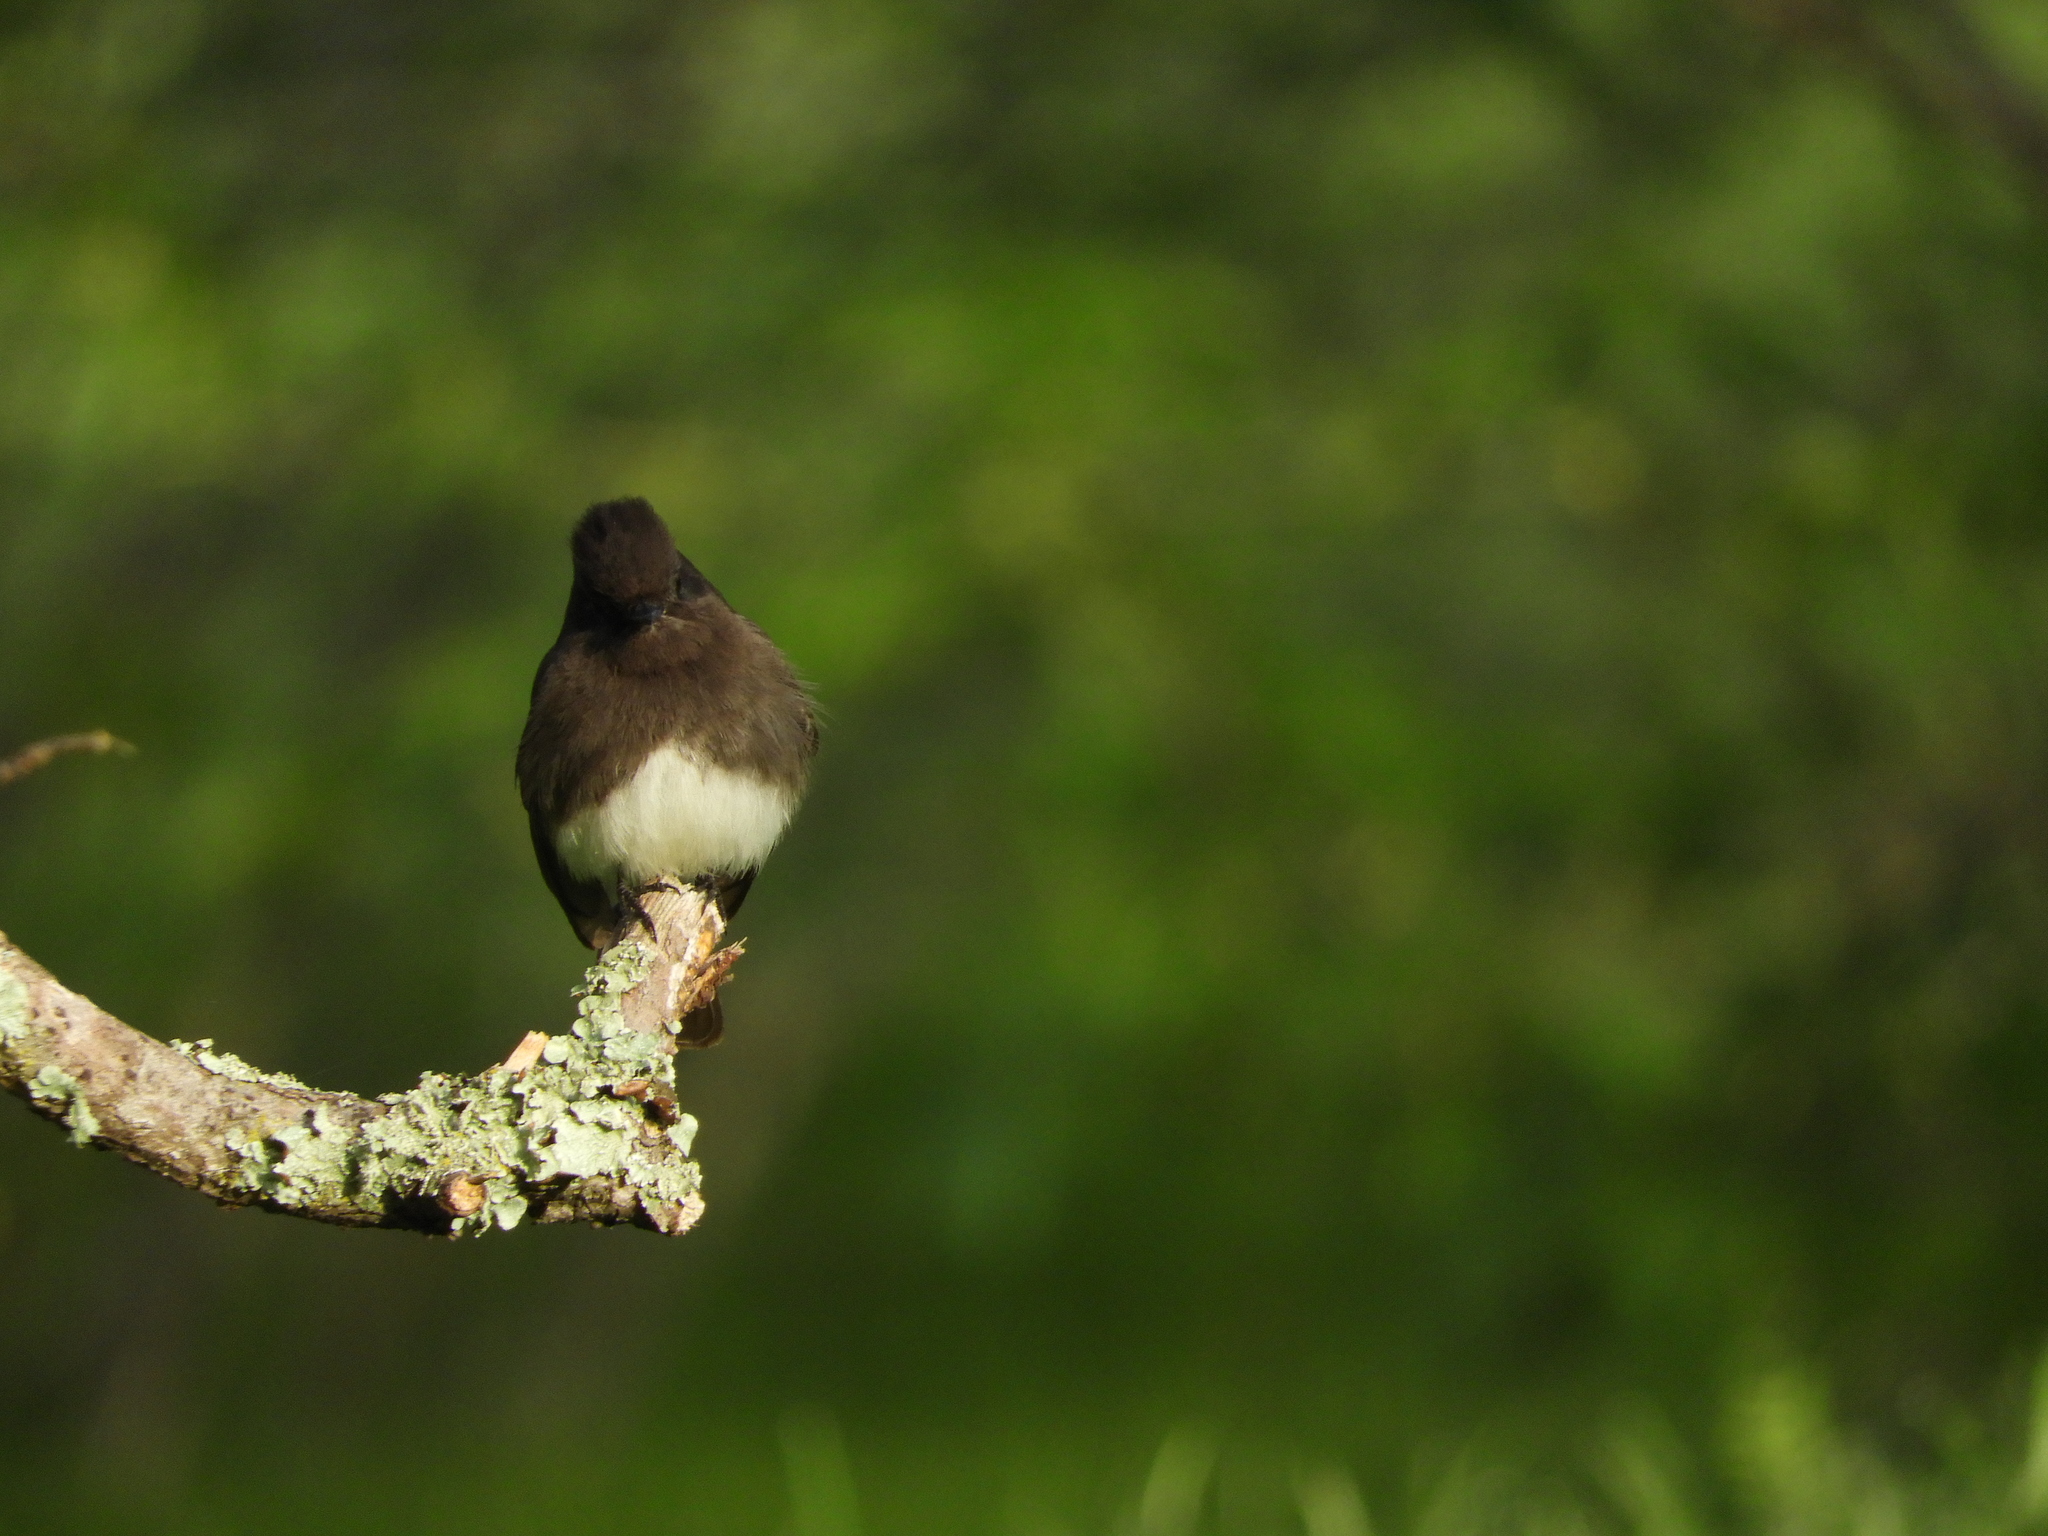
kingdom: Animalia
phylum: Chordata
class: Aves
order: Passeriformes
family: Tyrannidae
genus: Sayornis
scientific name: Sayornis nigricans
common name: Black phoebe
